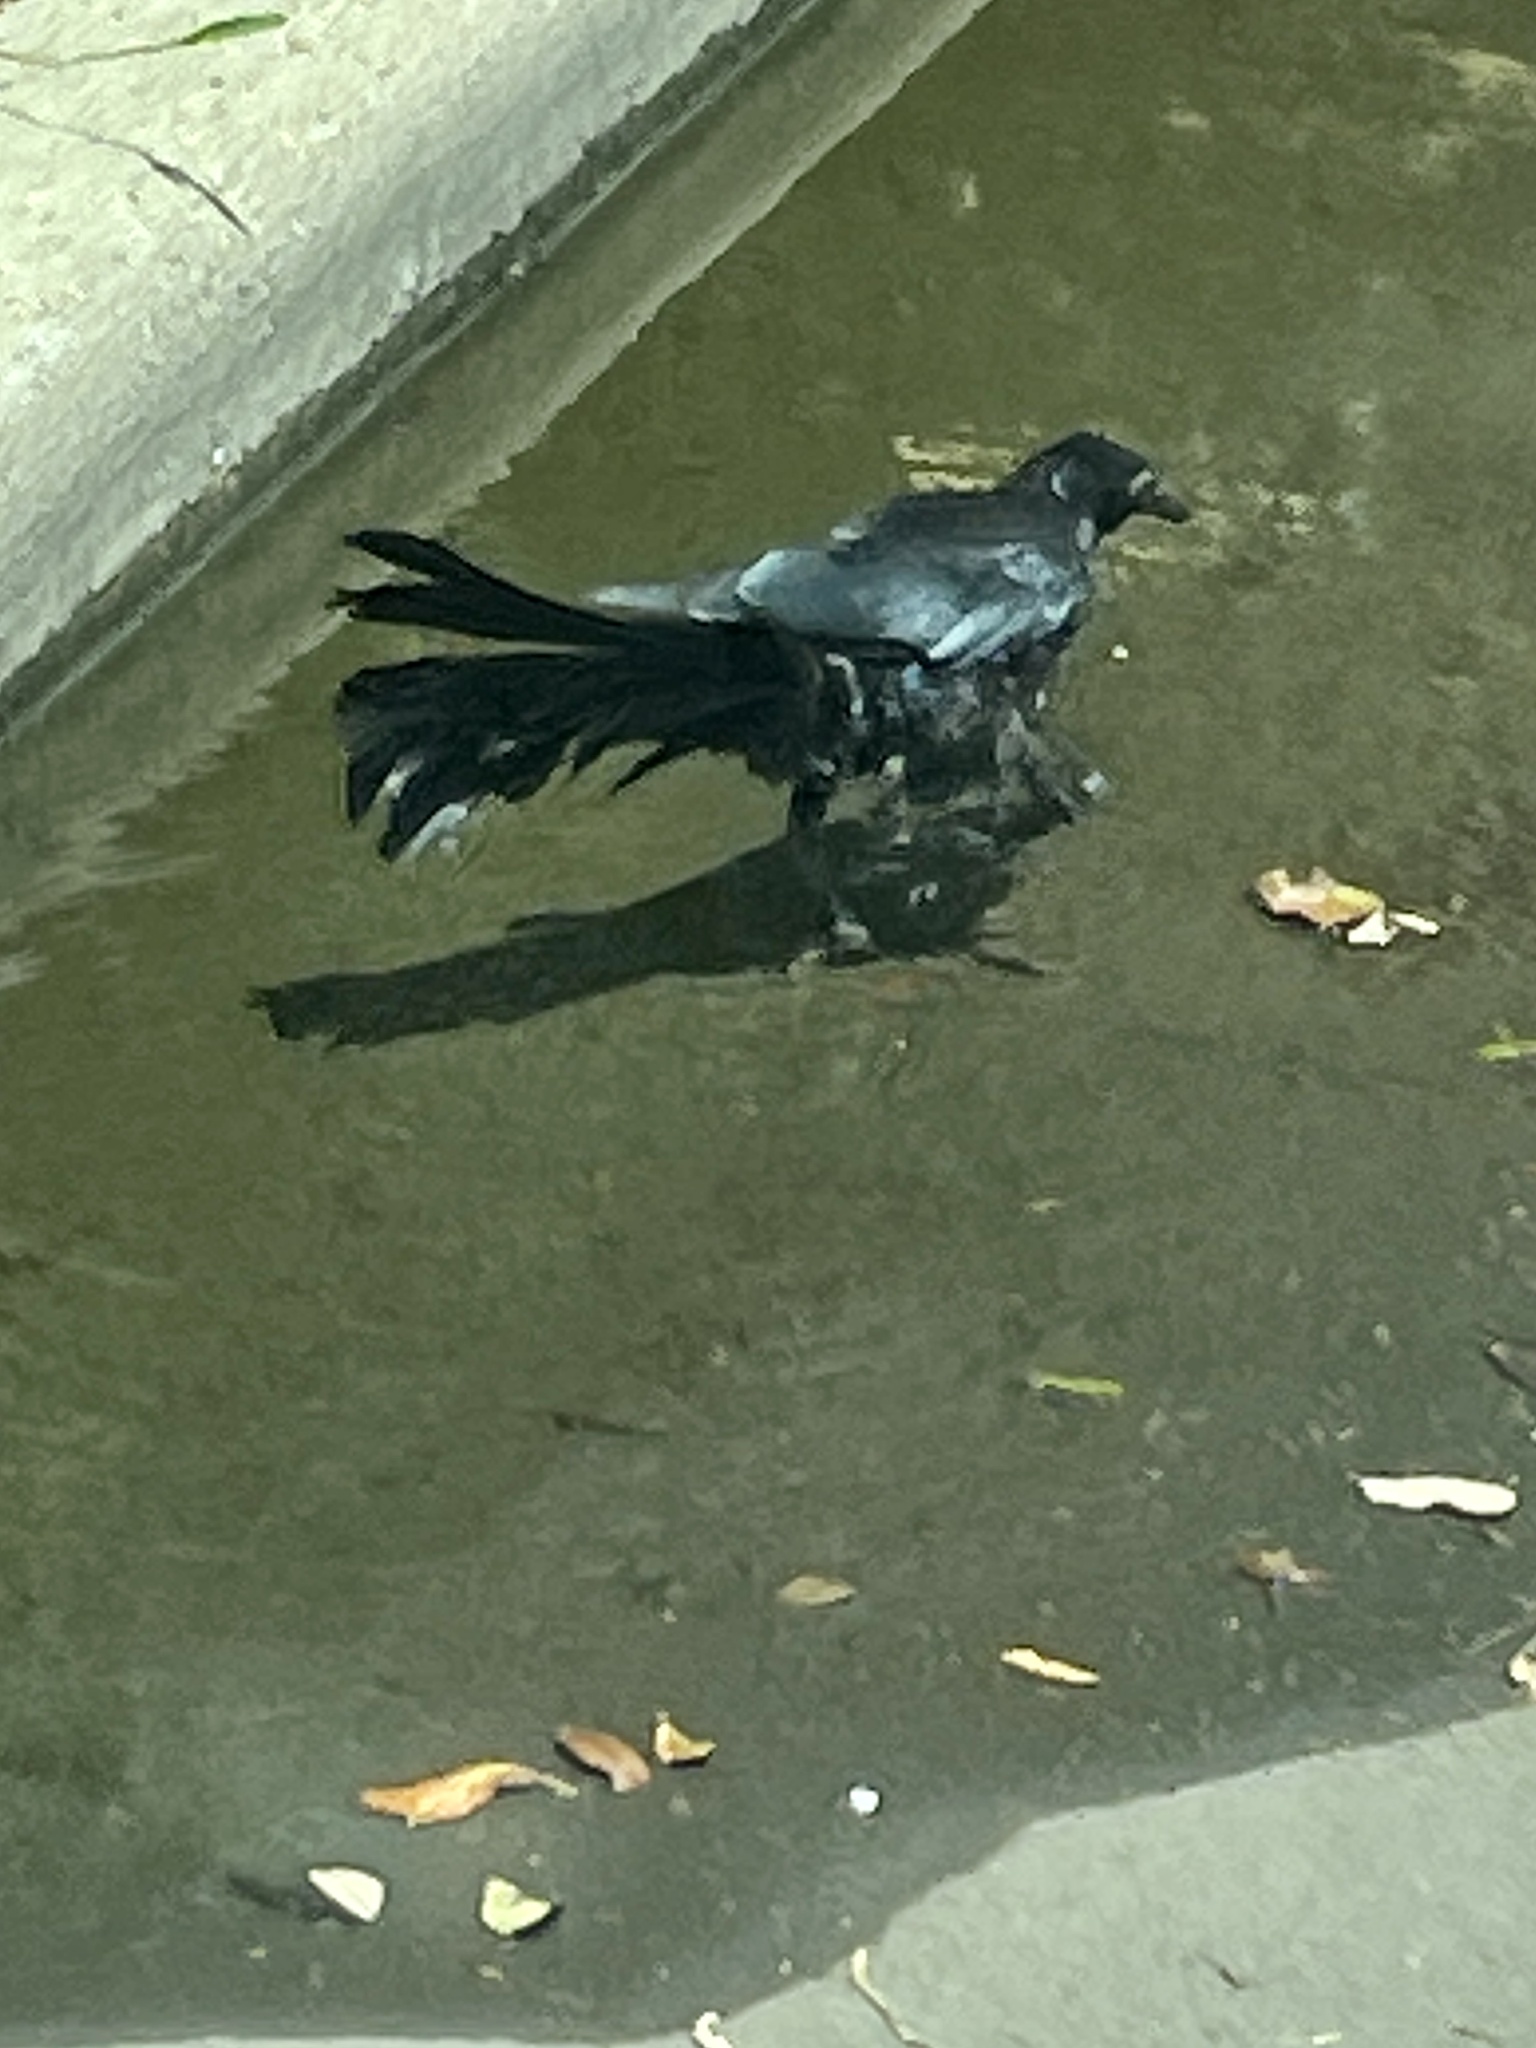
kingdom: Animalia
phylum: Chordata
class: Aves
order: Passeriformes
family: Icteridae
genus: Quiscalus
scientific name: Quiscalus mexicanus
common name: Great-tailed grackle
